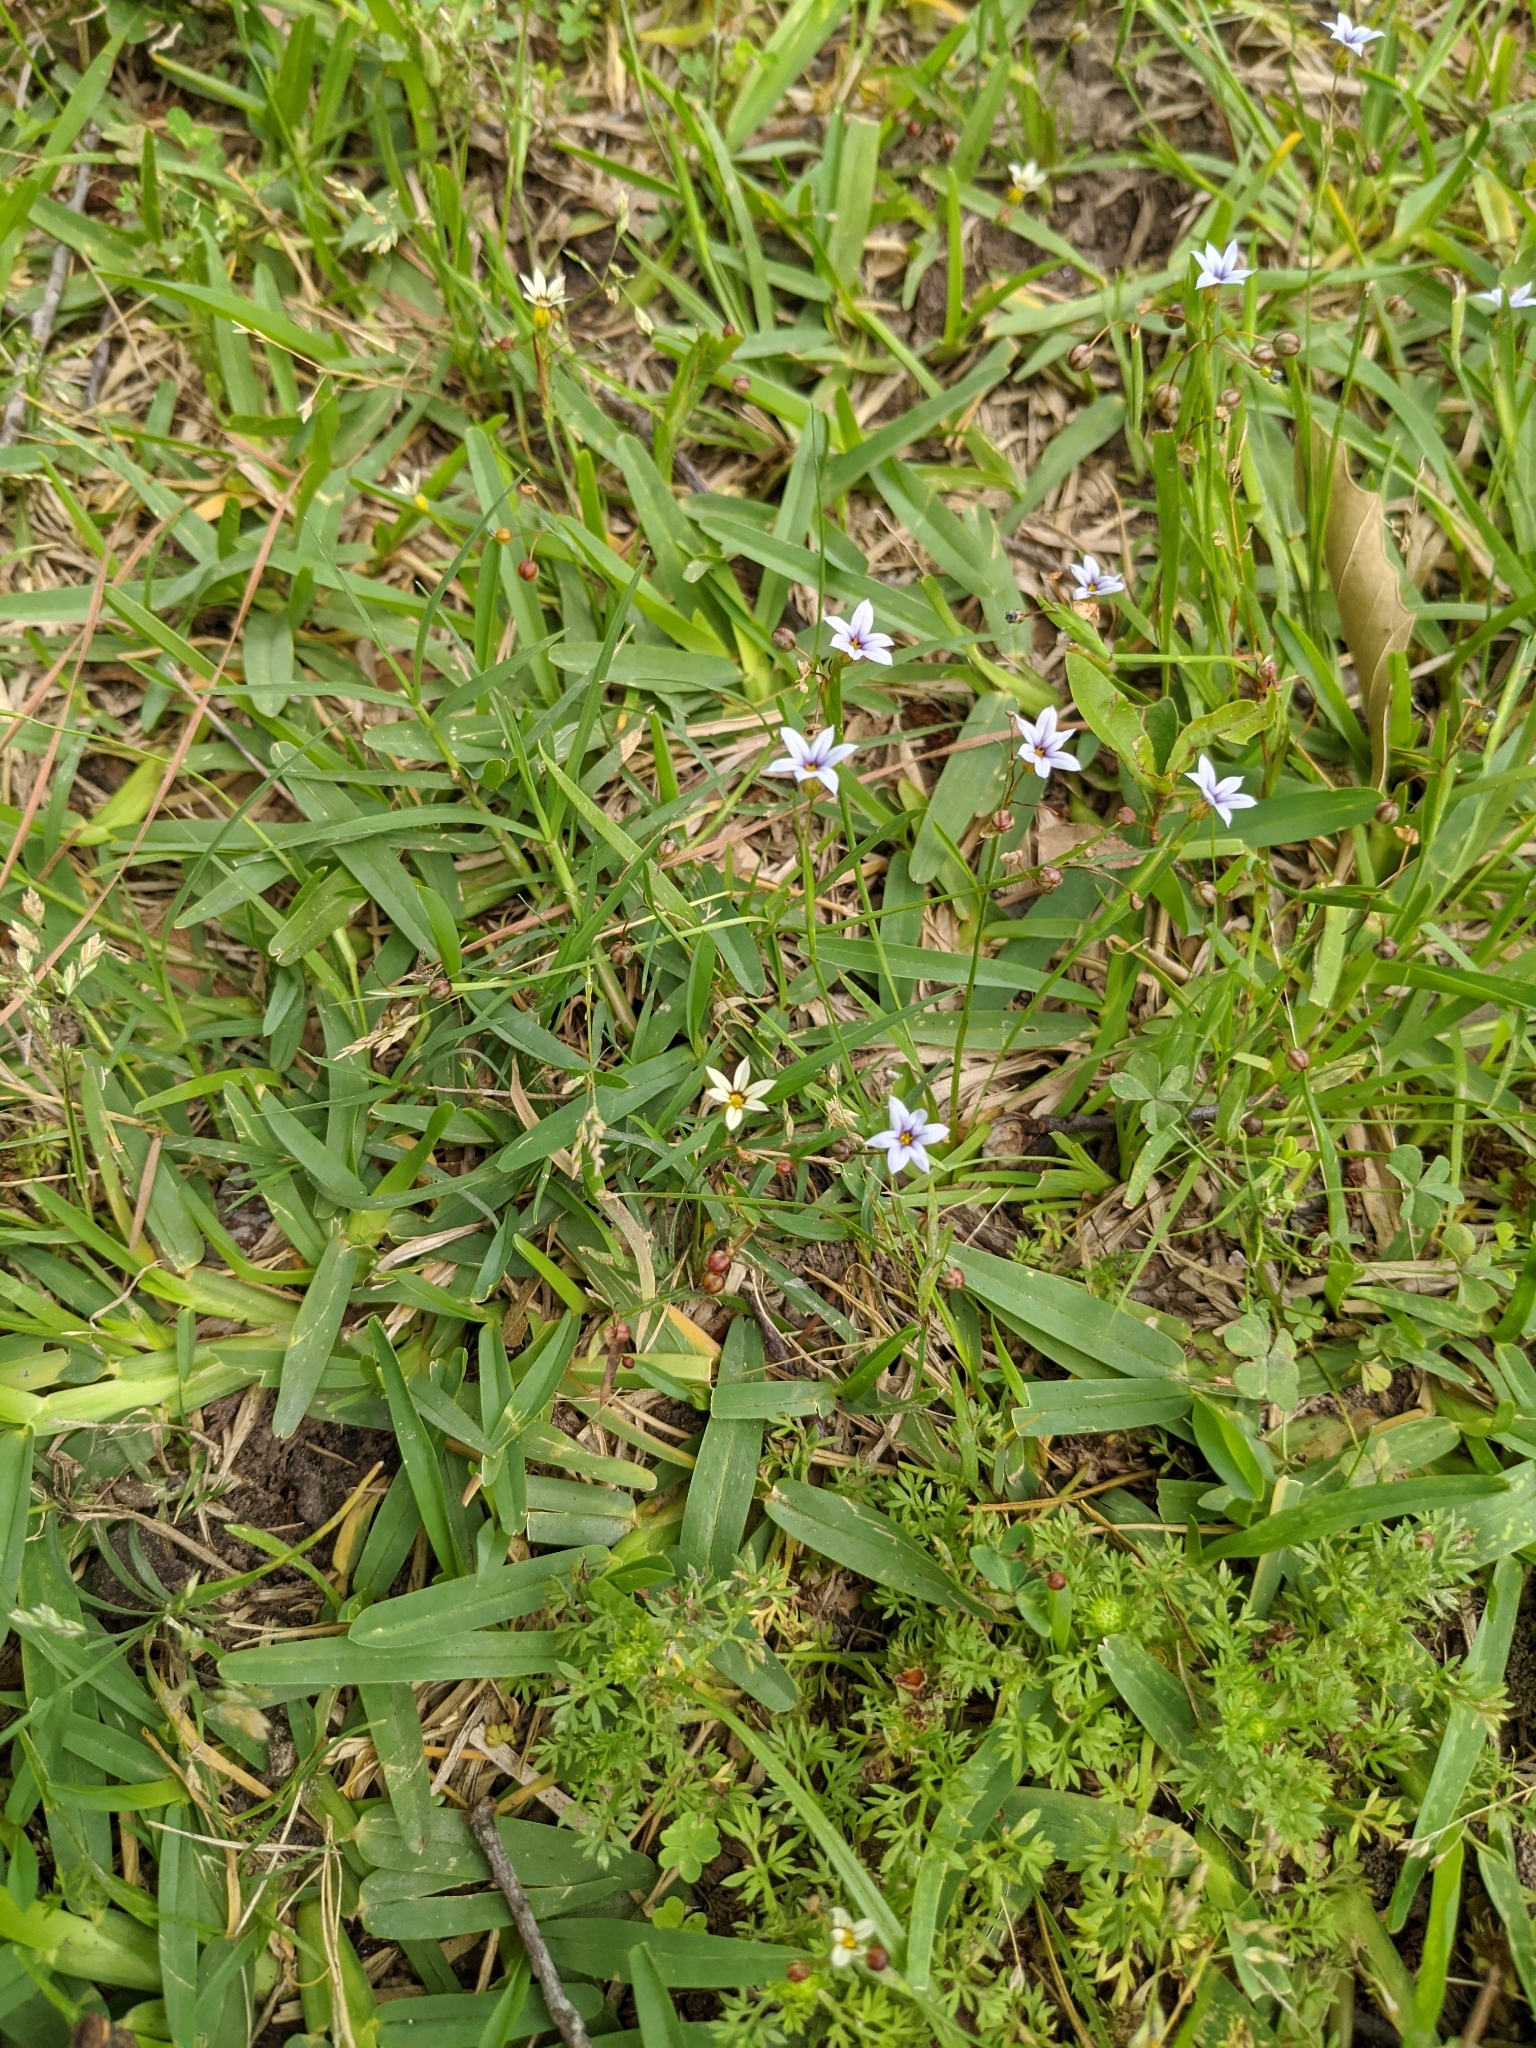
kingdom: Plantae
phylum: Tracheophyta
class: Liliopsida
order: Asparagales
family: Iridaceae
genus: Sisyrinchium
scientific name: Sisyrinchium micranthum
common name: Bermuda pigroot
